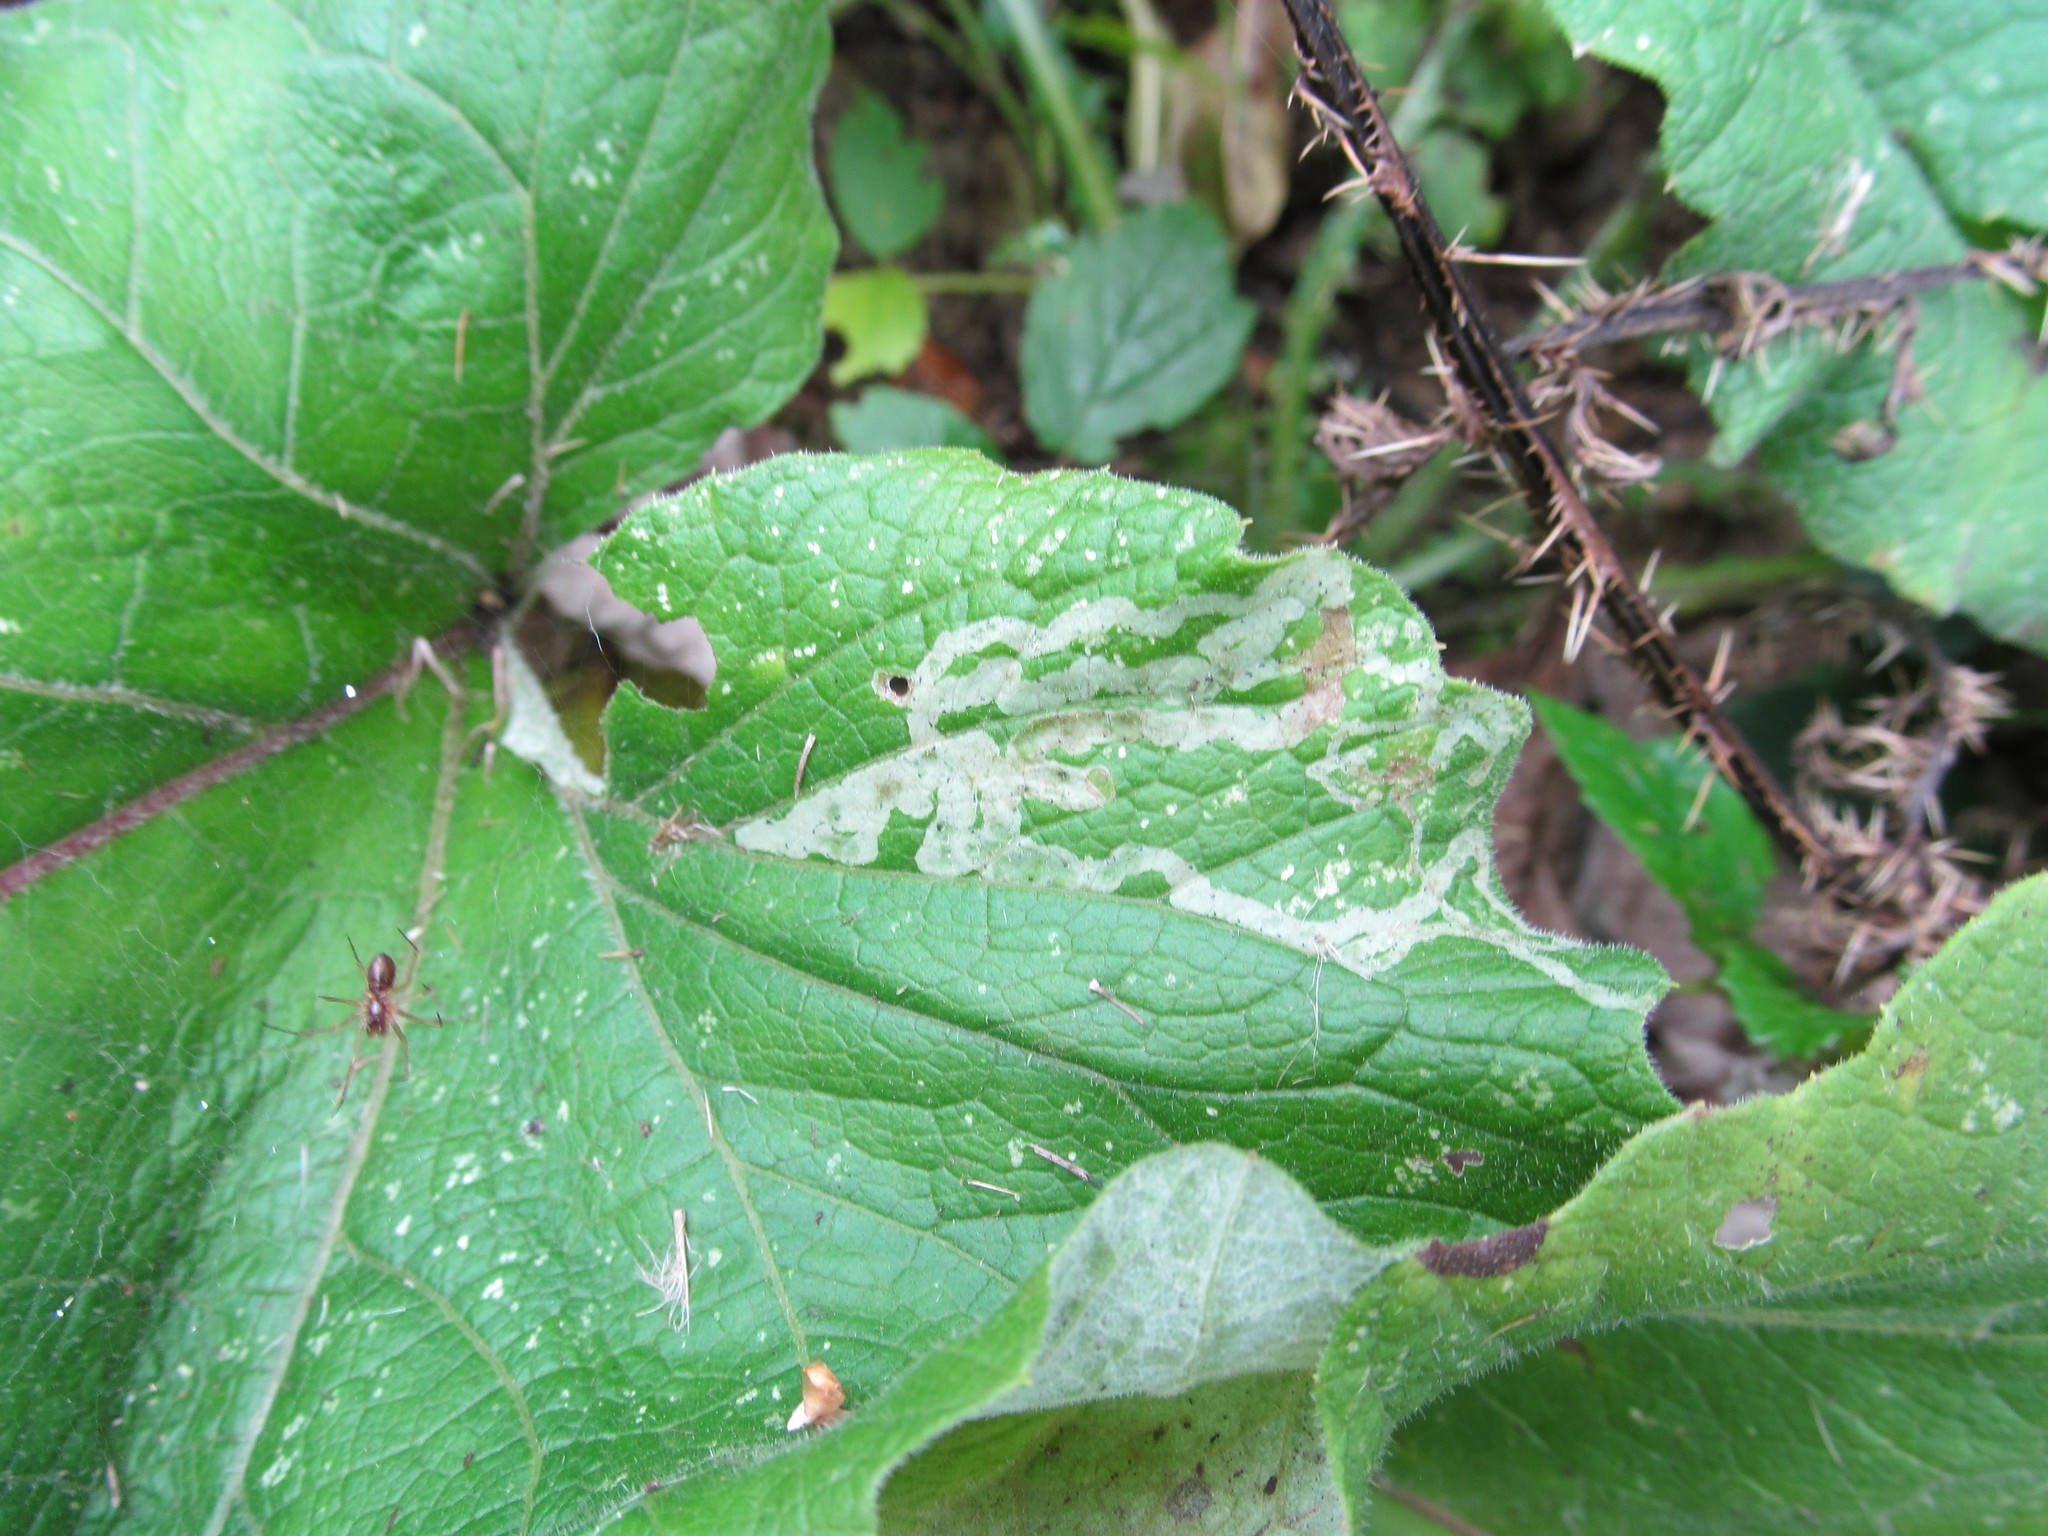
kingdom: Animalia
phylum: Arthropoda
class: Insecta
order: Diptera
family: Agromyzidae
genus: Phytomyza
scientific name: Phytomyza lappae
